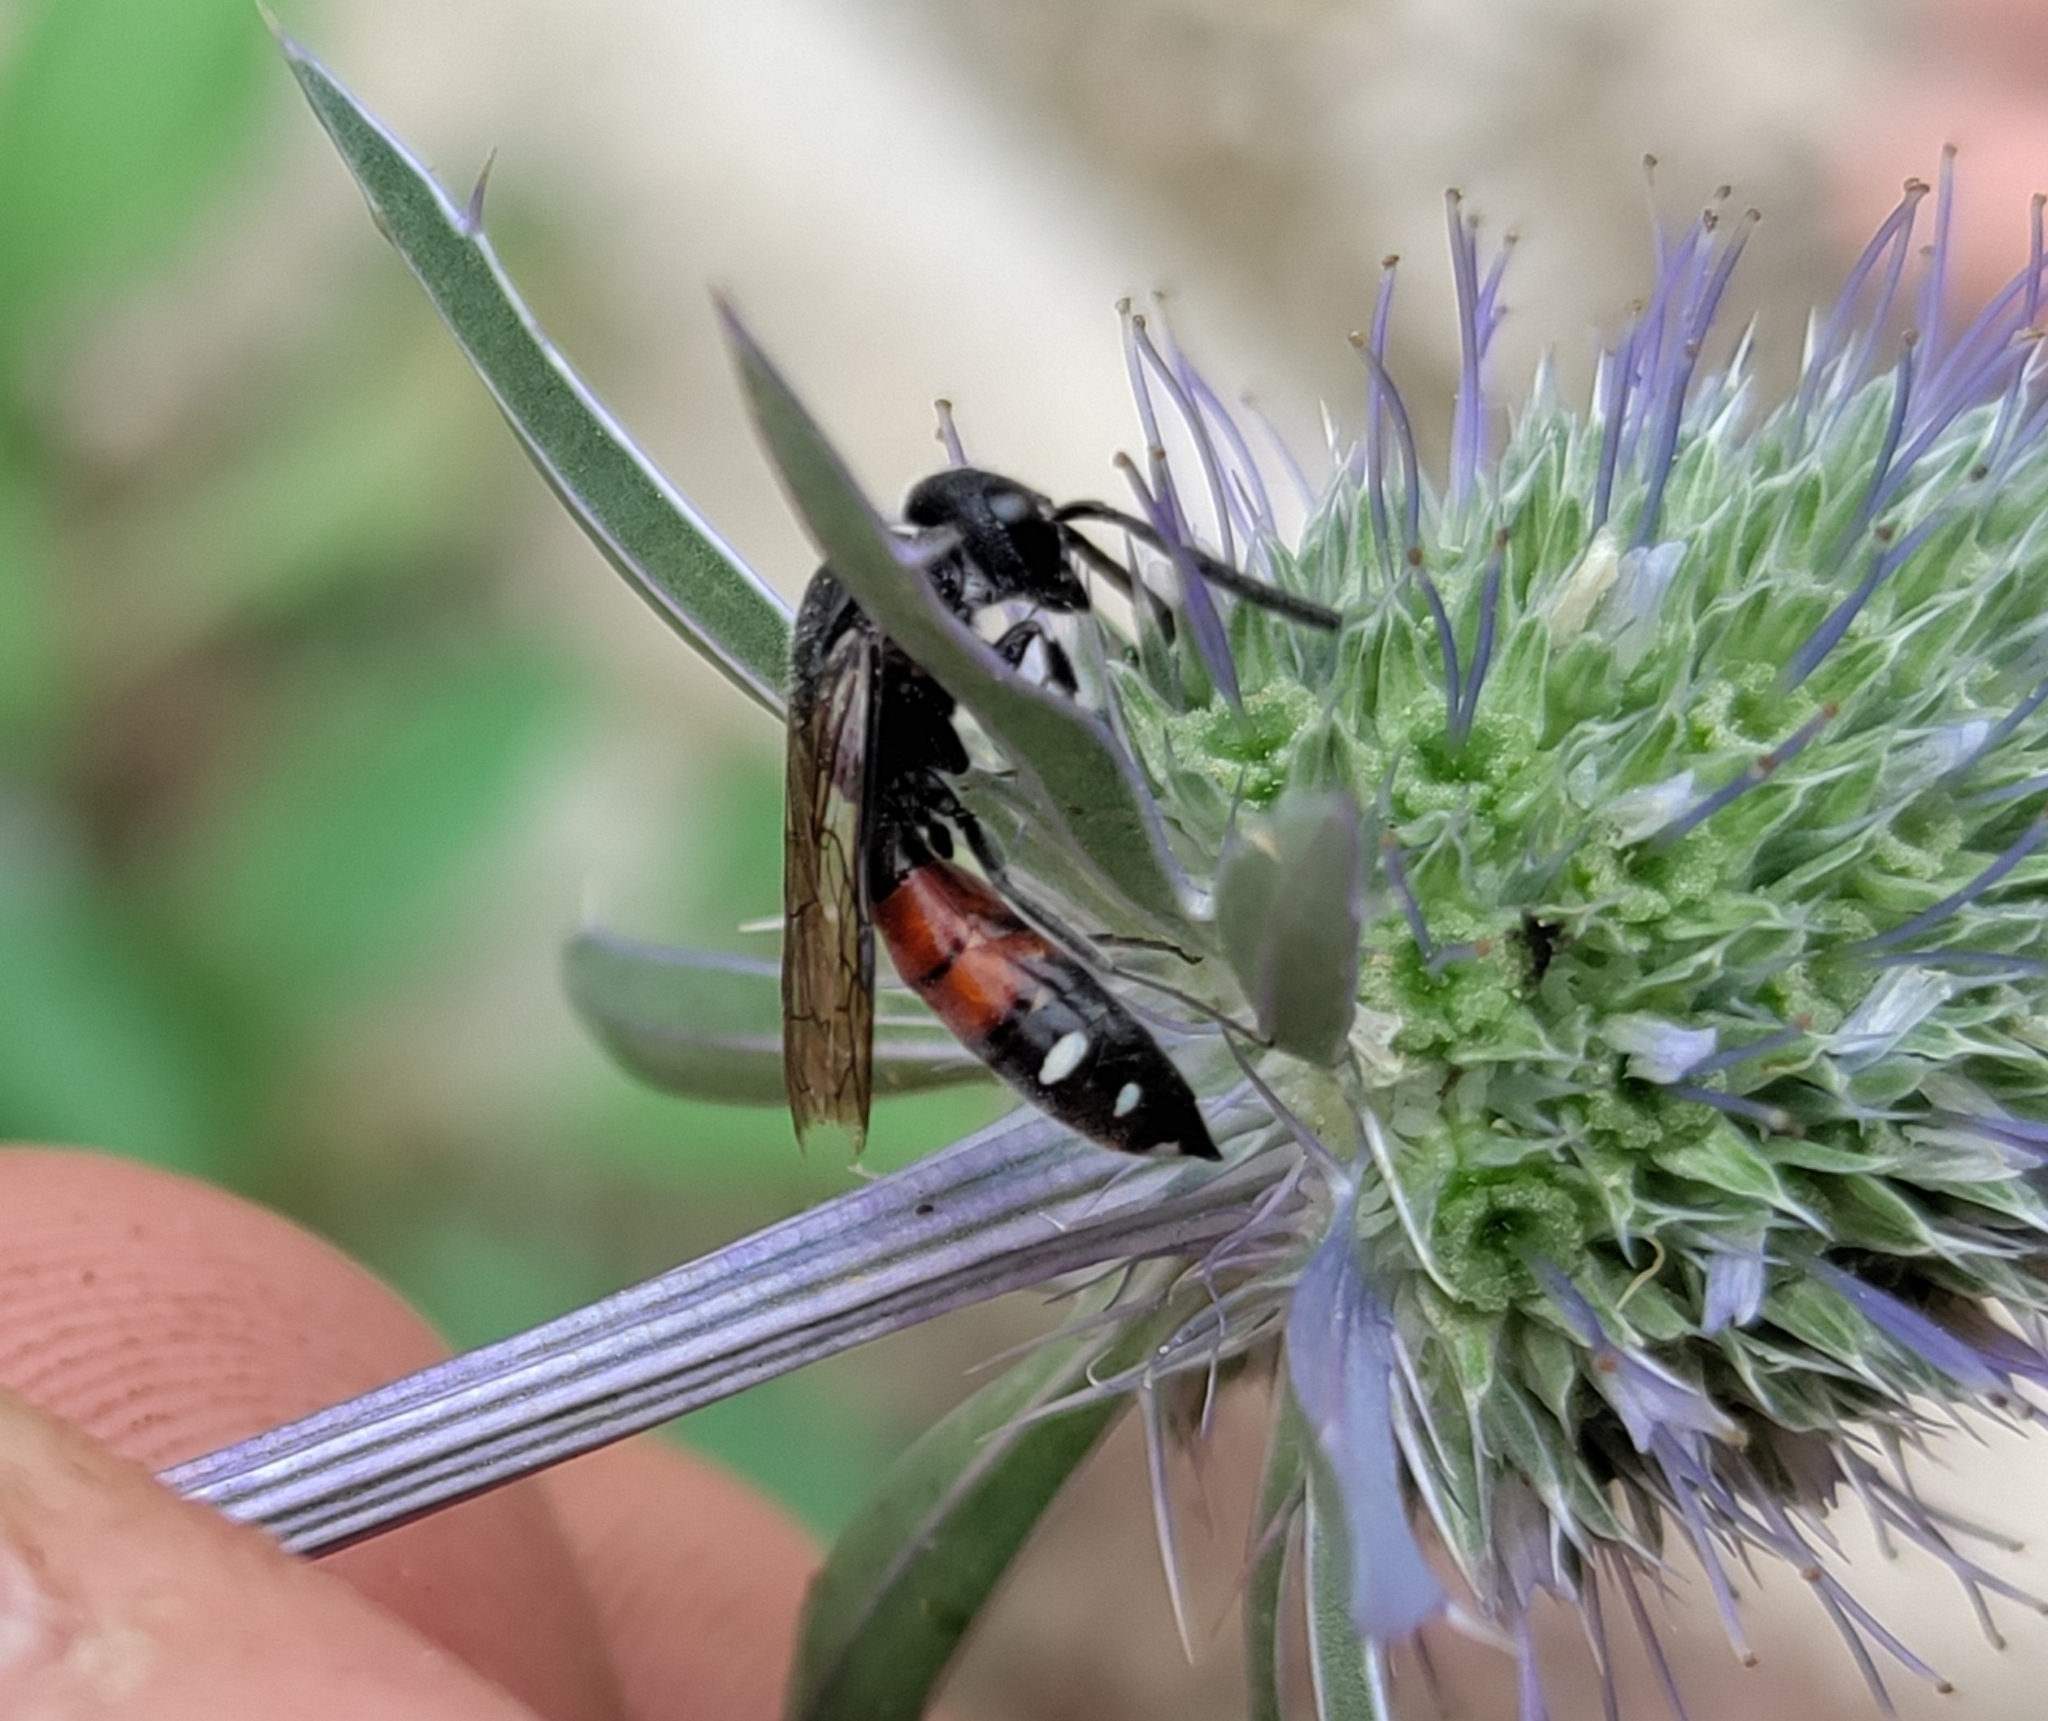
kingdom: Animalia
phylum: Arthropoda
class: Insecta
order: Hymenoptera
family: Sapygidae
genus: Sapyga
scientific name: Sapyga quinquepunctata
